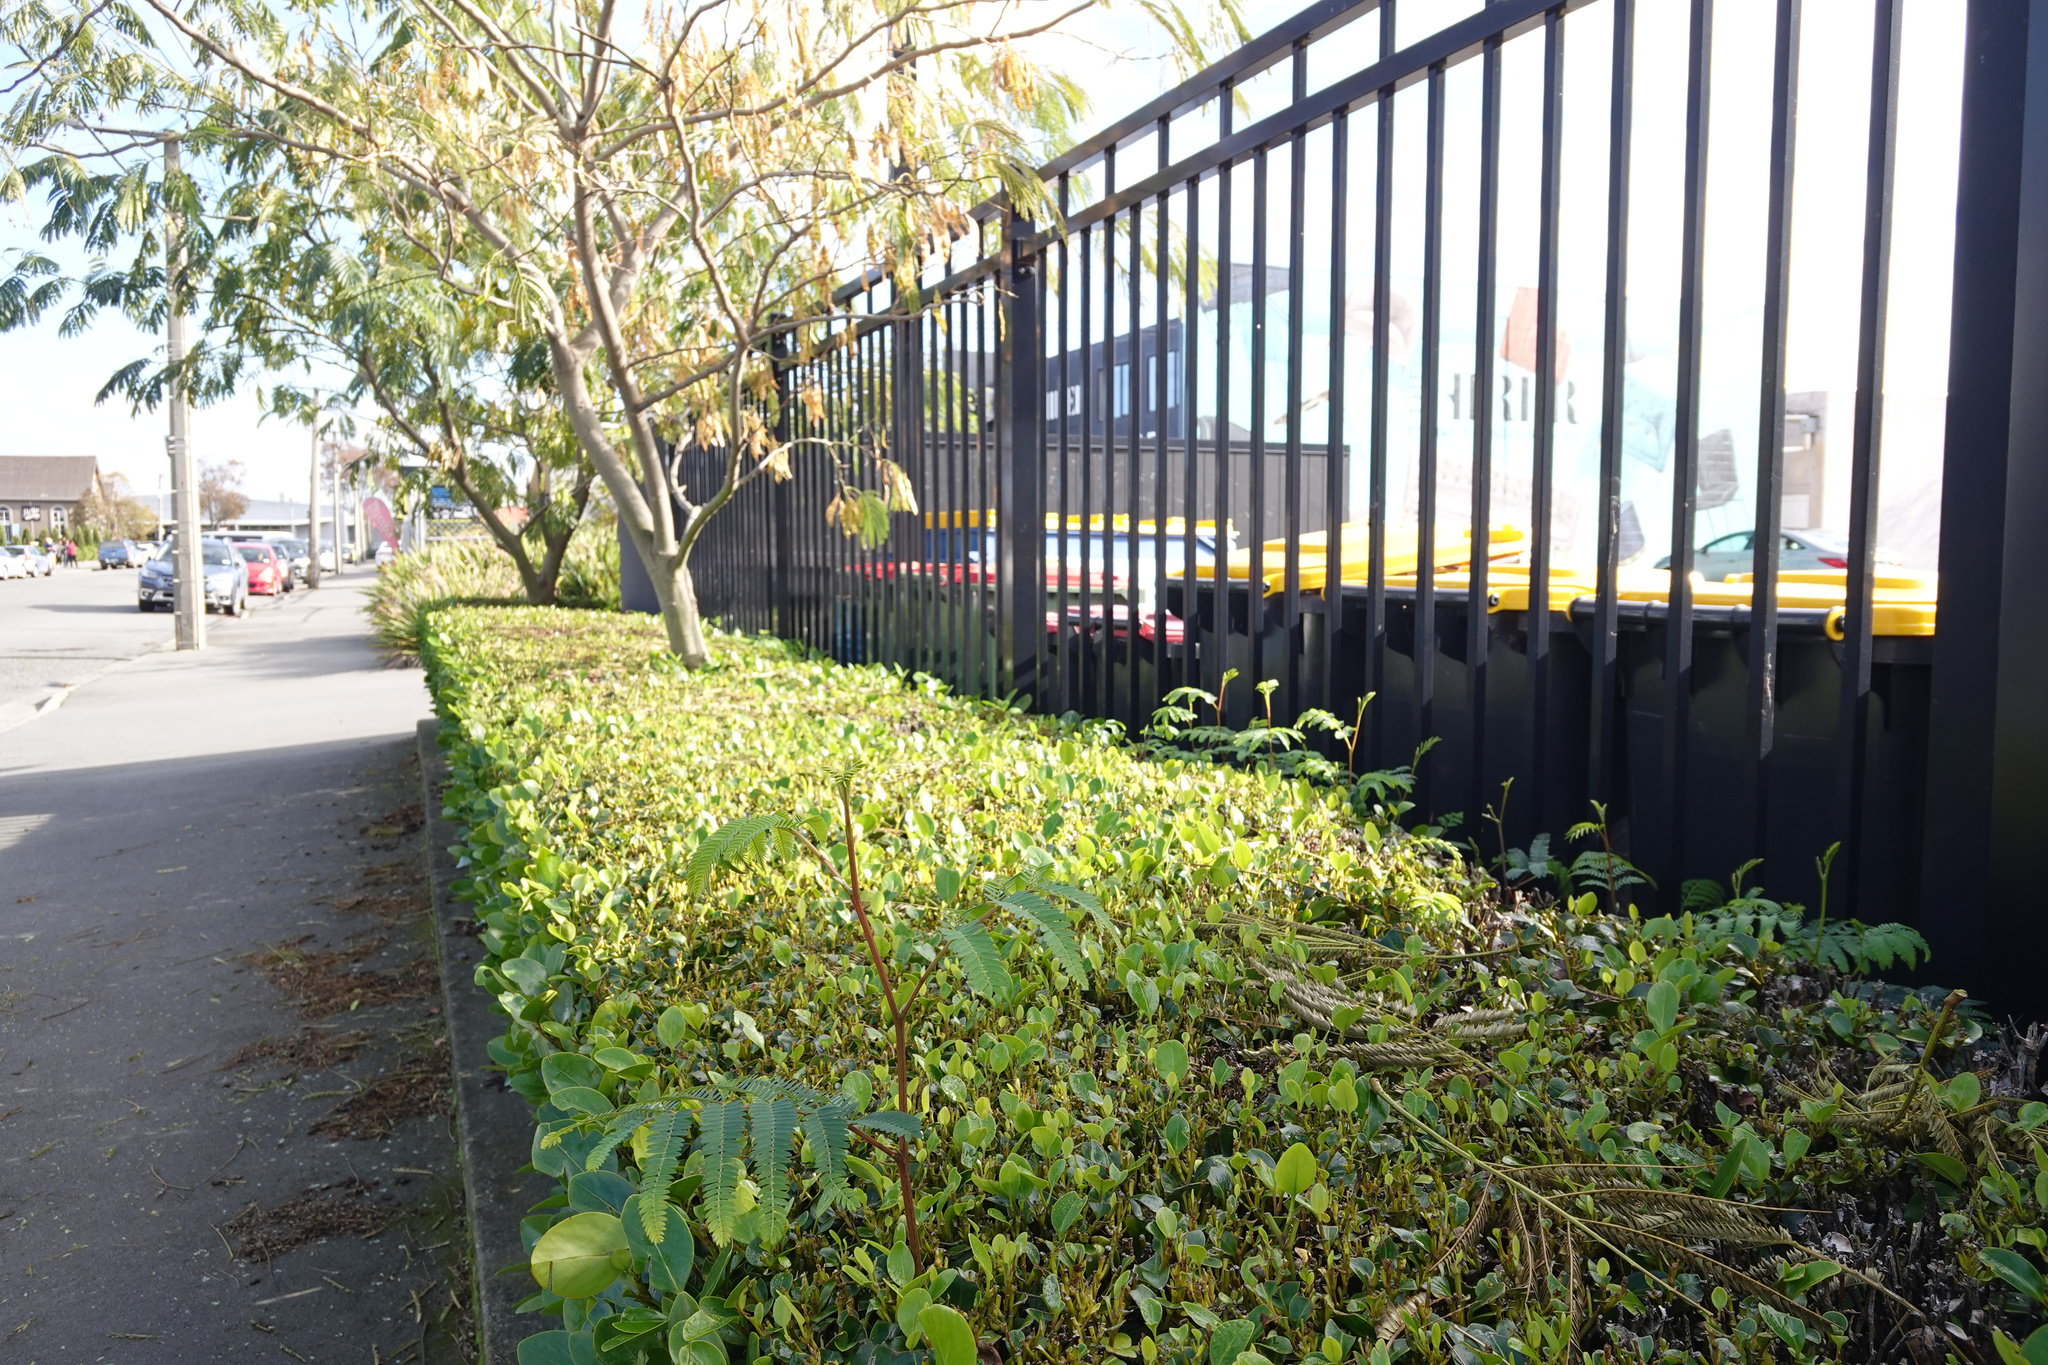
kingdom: Plantae
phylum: Tracheophyta
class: Magnoliopsida
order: Fabales
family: Fabaceae
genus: Paraserianthes
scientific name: Paraserianthes lophantha
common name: Plume albizia
